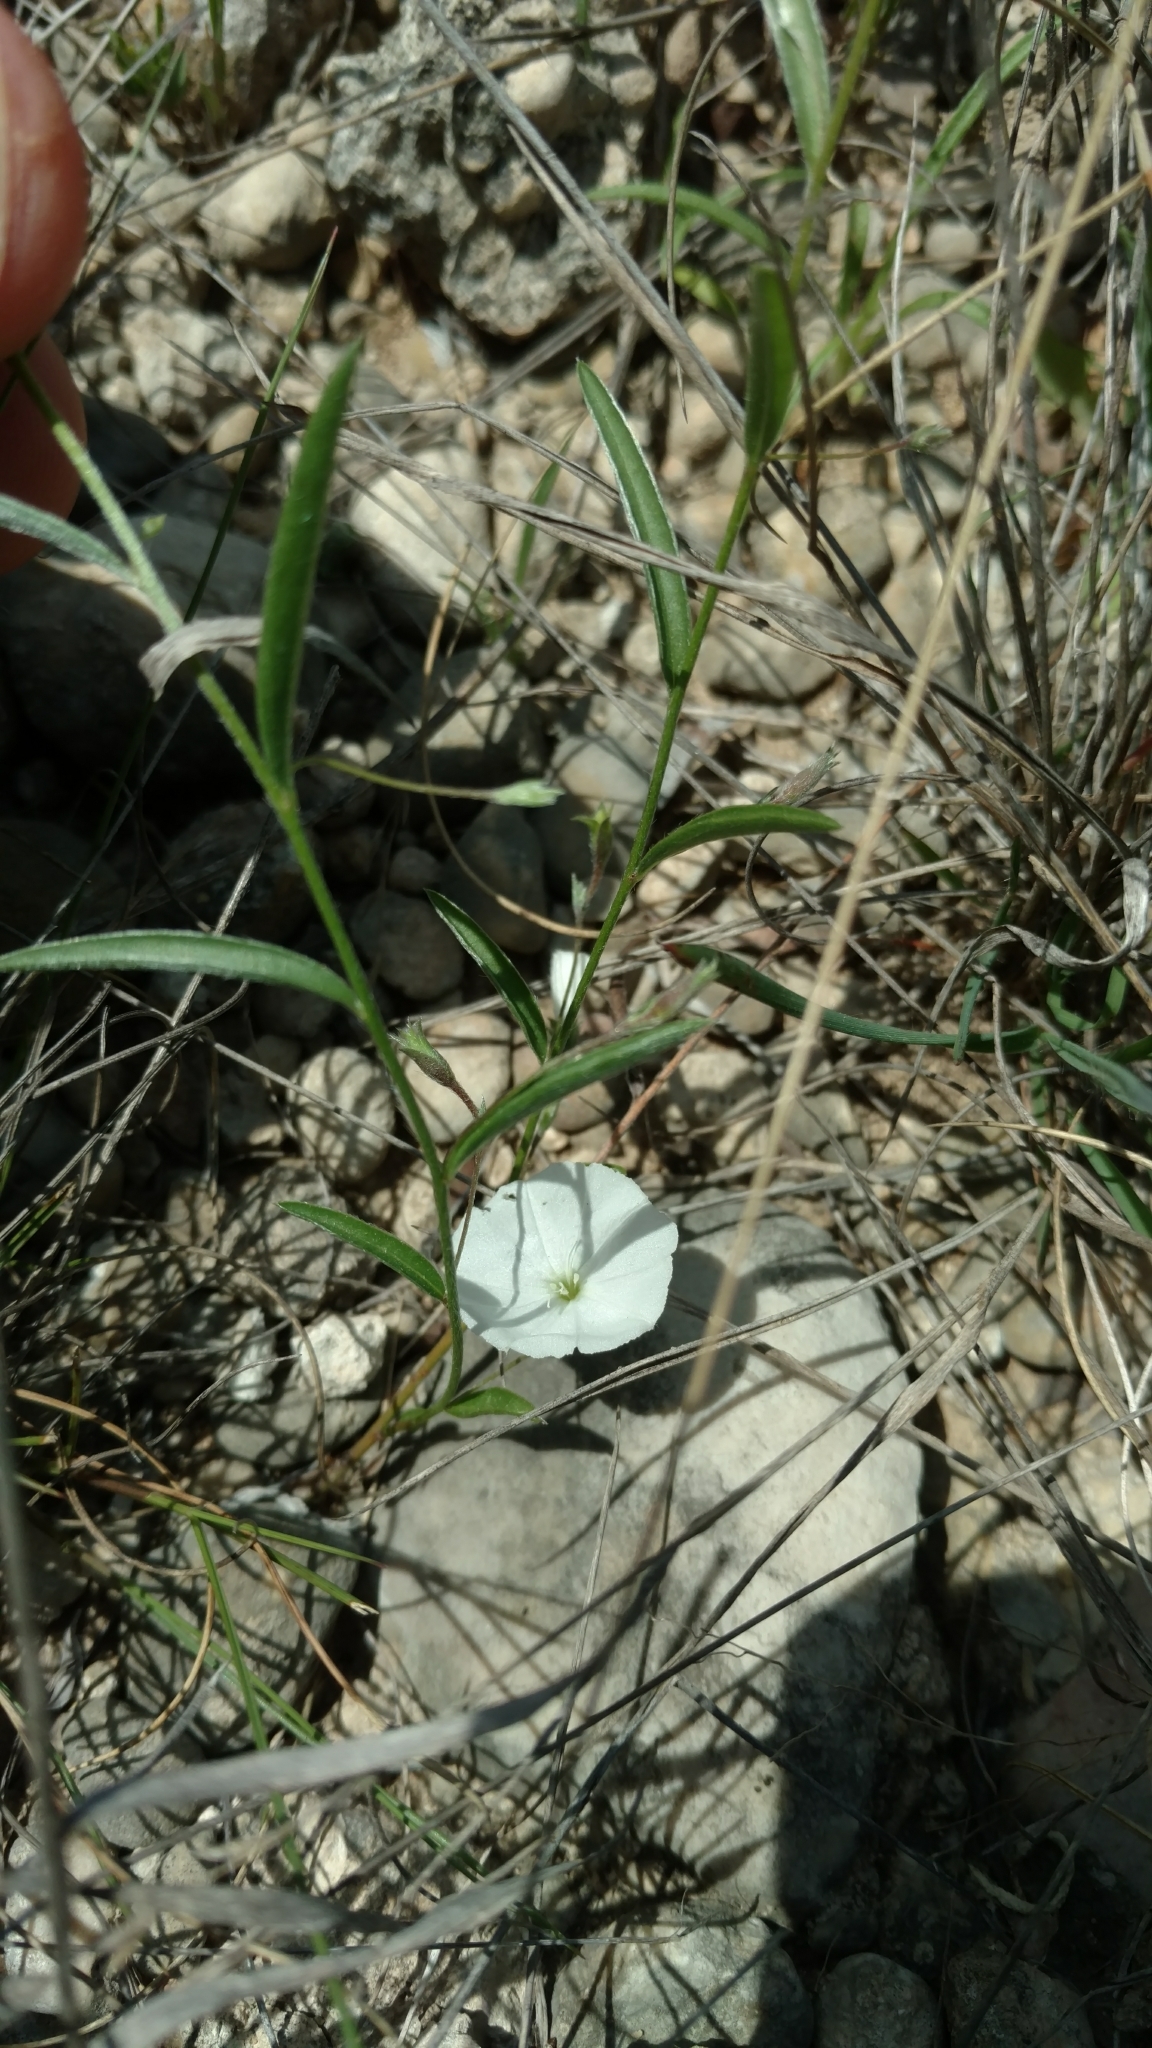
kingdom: Plantae
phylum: Tracheophyta
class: Magnoliopsida
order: Solanales
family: Convolvulaceae
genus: Evolvulus
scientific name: Evolvulus sericeus
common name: Blue dots
